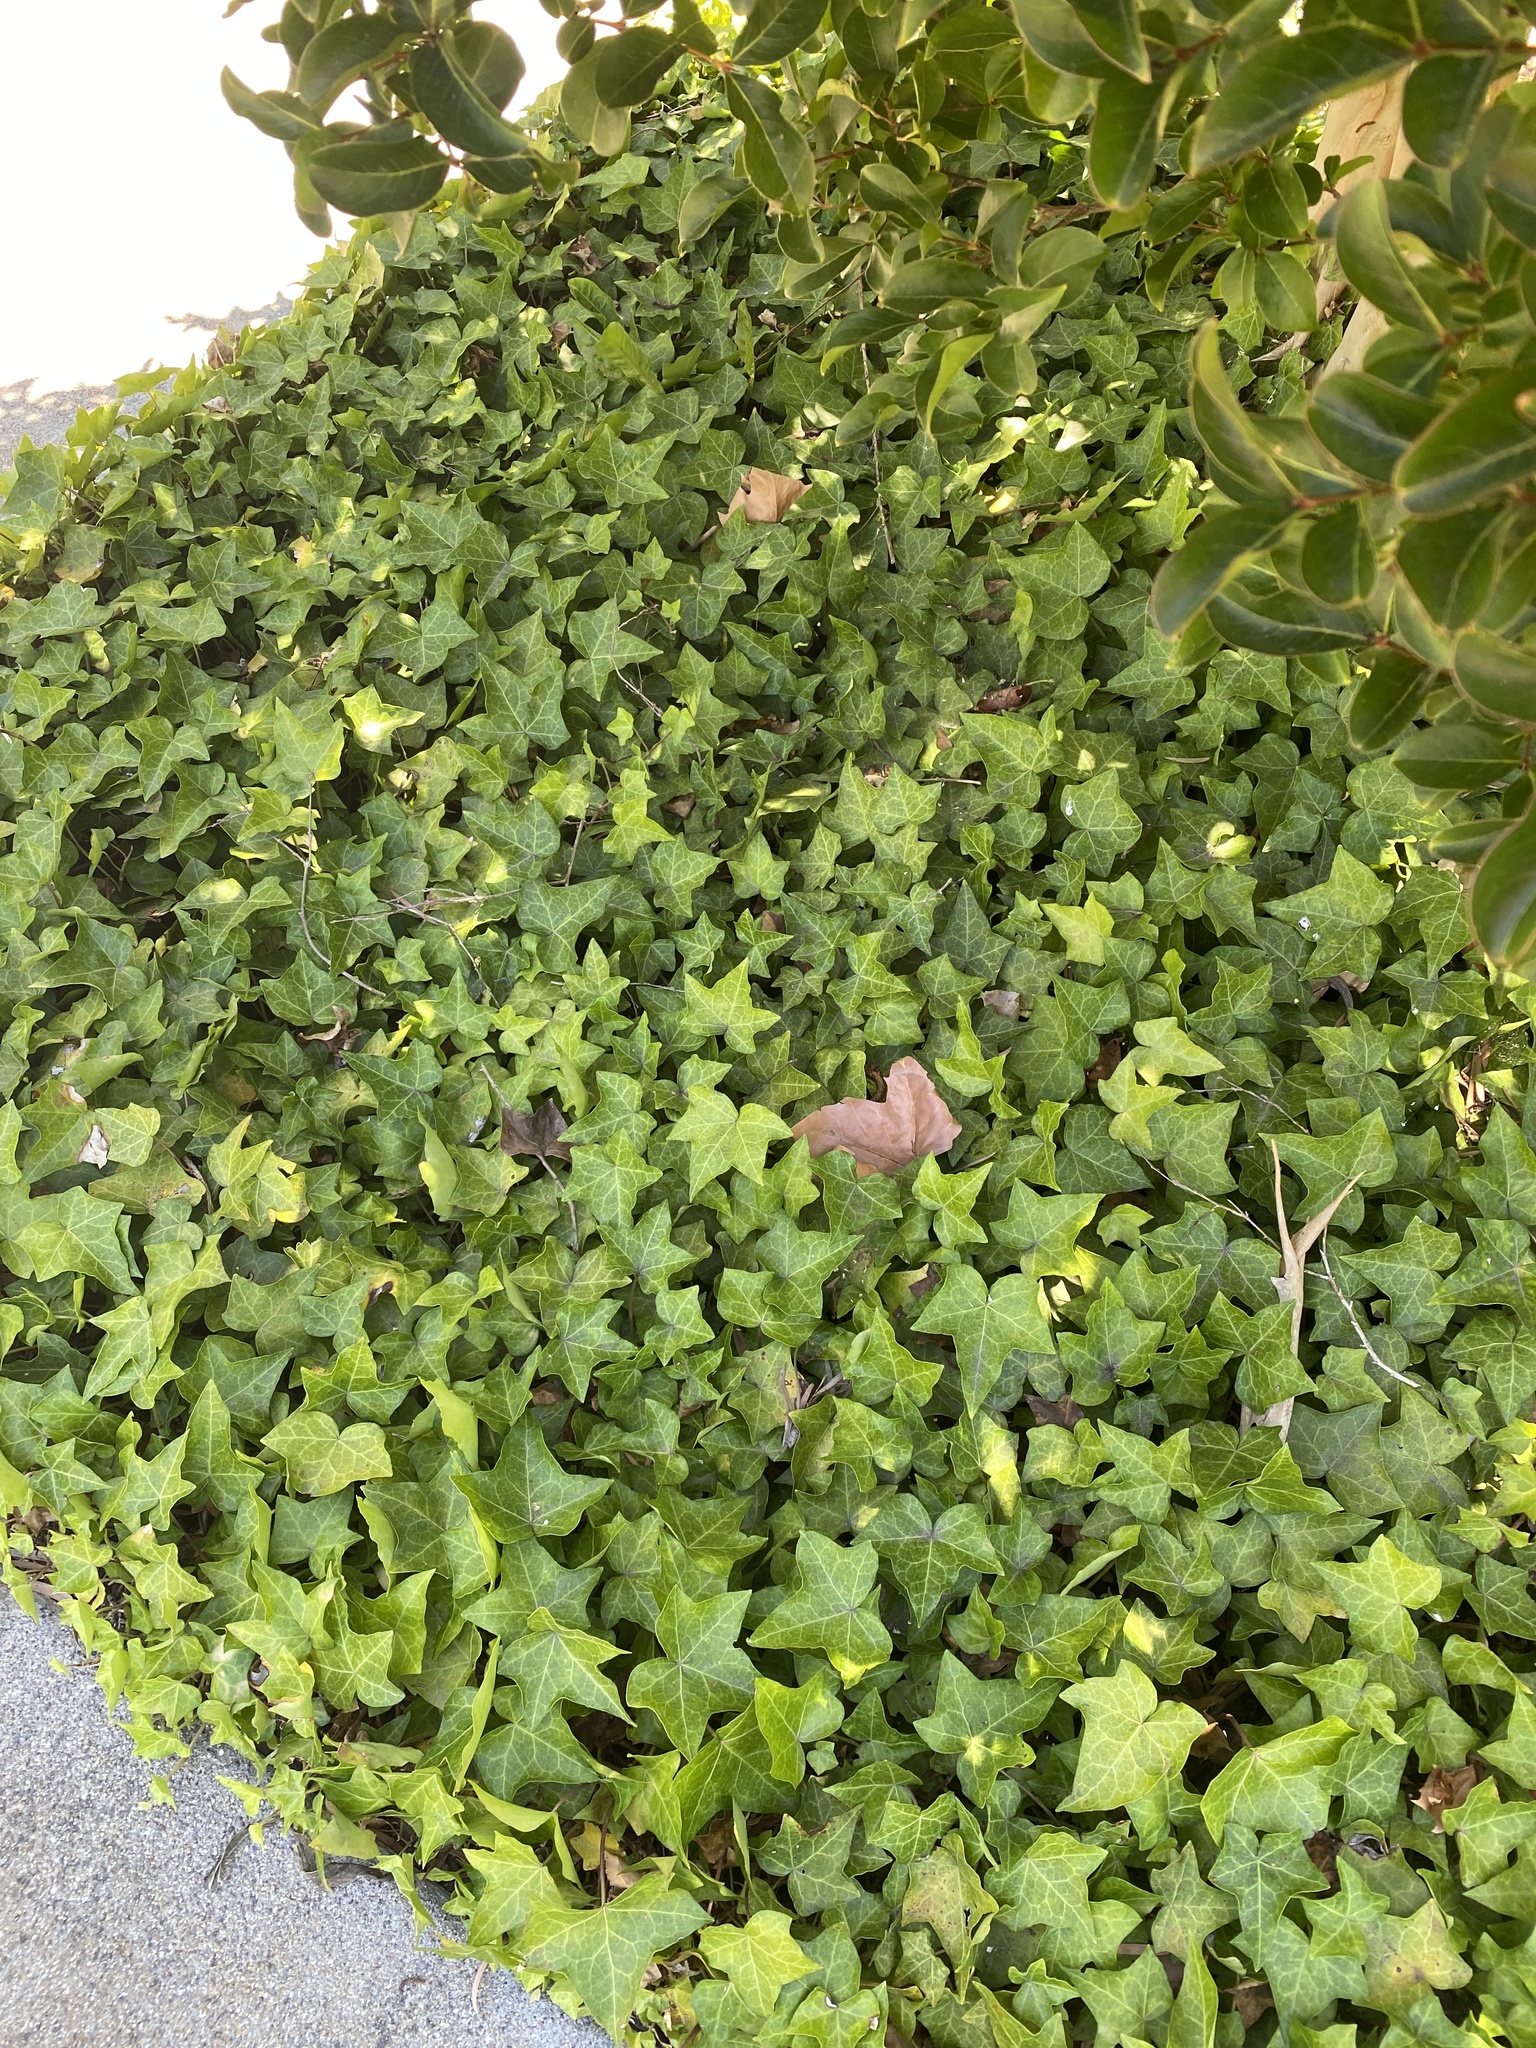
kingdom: Plantae
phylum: Tracheophyta
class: Magnoliopsida
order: Apiales
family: Araliaceae
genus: Hedera
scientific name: Hedera helix
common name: Ivy
